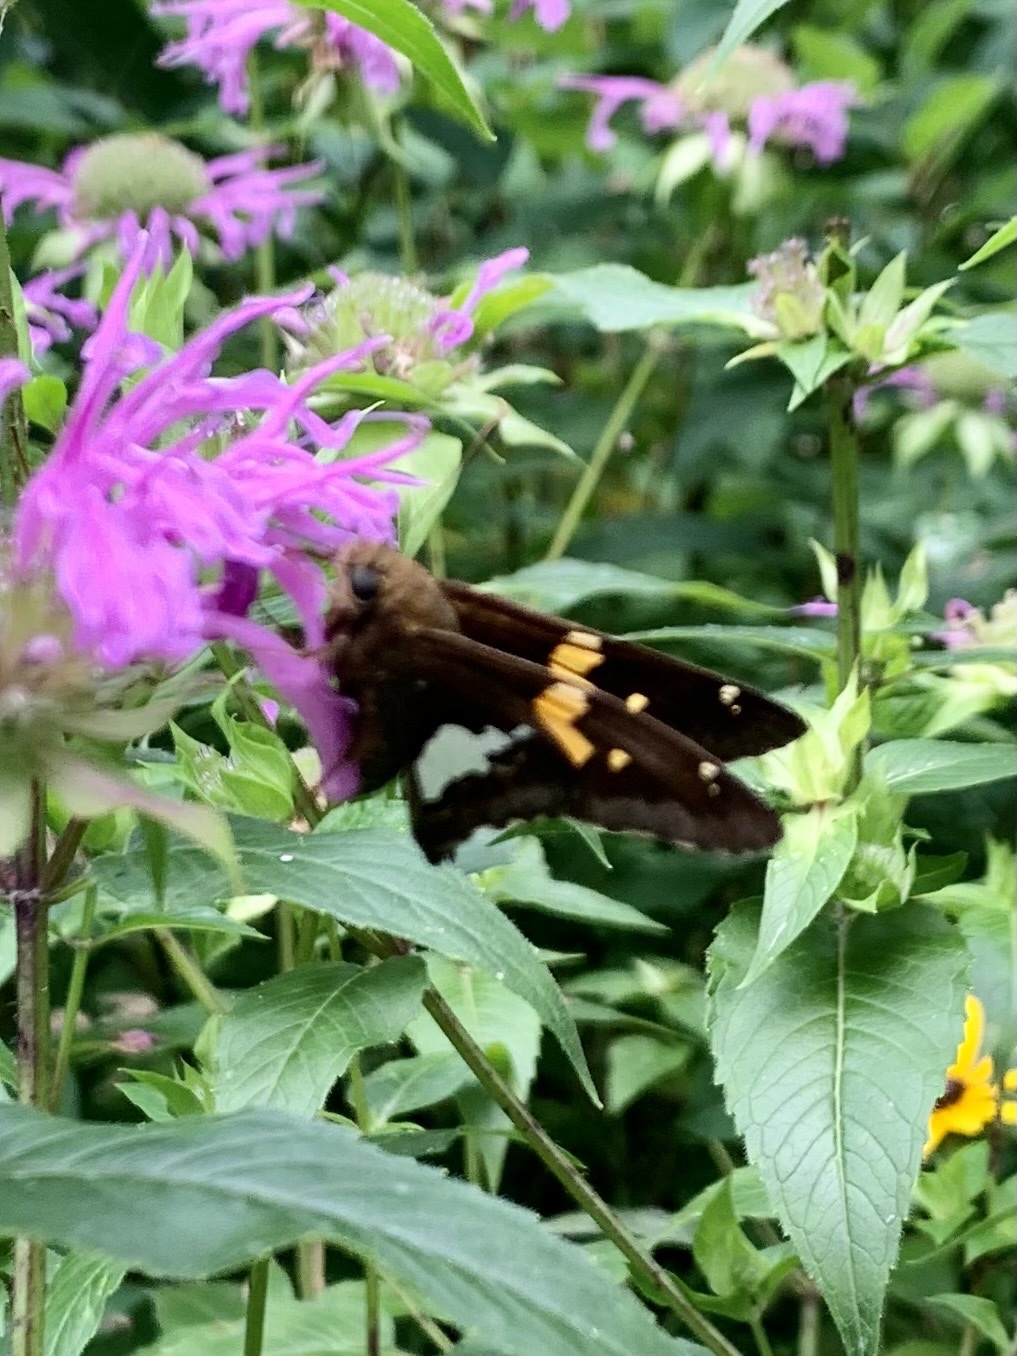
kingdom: Animalia
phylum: Arthropoda
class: Insecta
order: Lepidoptera
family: Hesperiidae
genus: Epargyreus
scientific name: Epargyreus clarus
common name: Silver-spotted skipper
